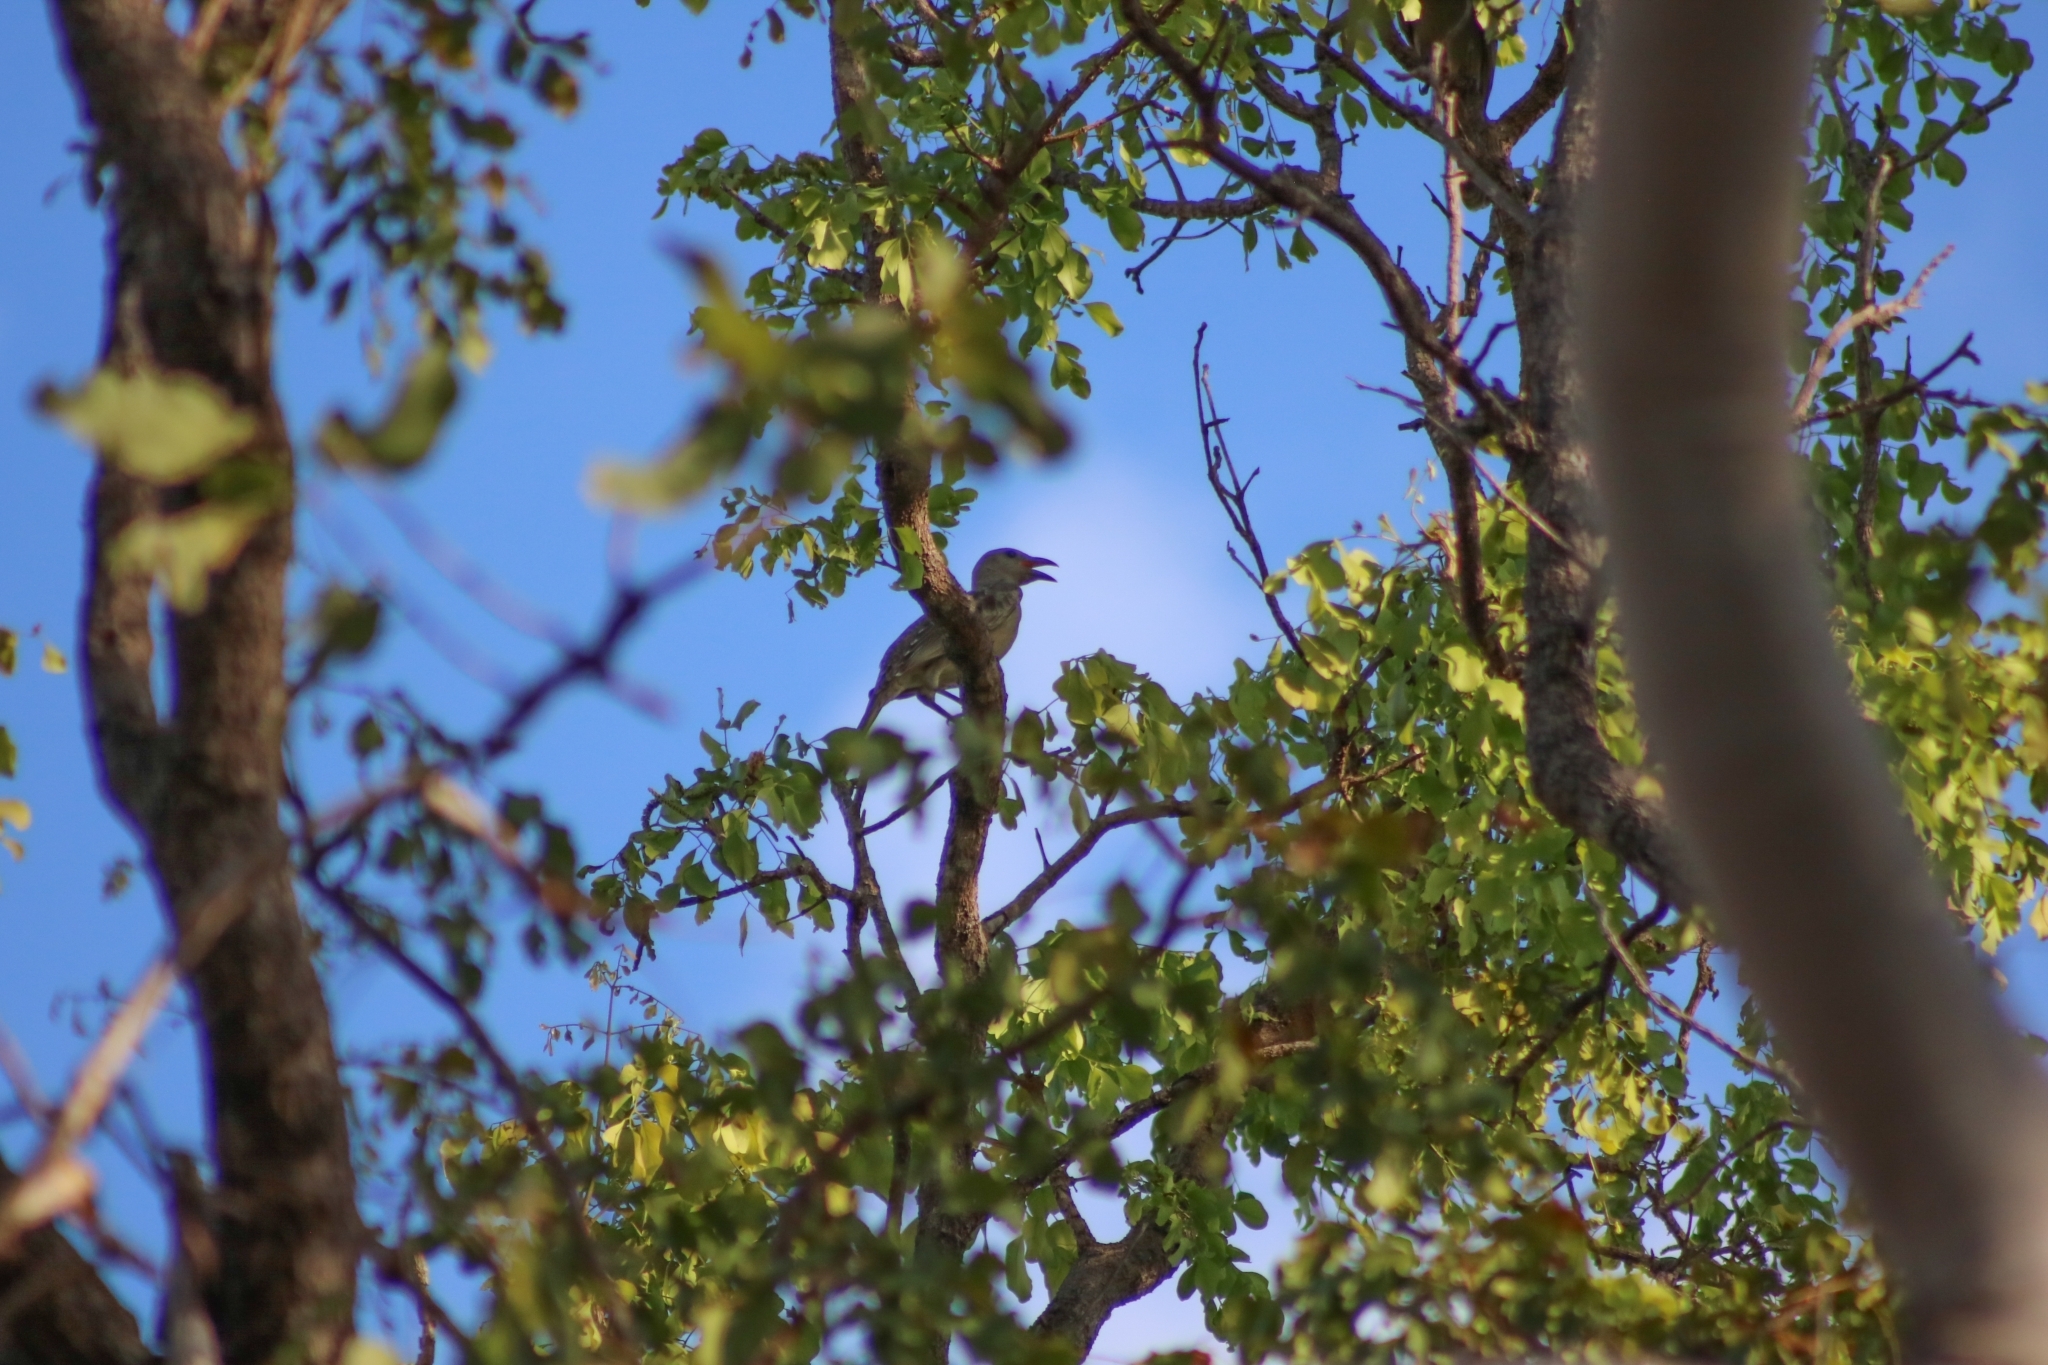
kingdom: Animalia
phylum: Chordata
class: Aves
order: Passeriformes
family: Ptilonorhynchidae
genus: Chlamydera
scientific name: Chlamydera nuchalis
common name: Great bowerbird
